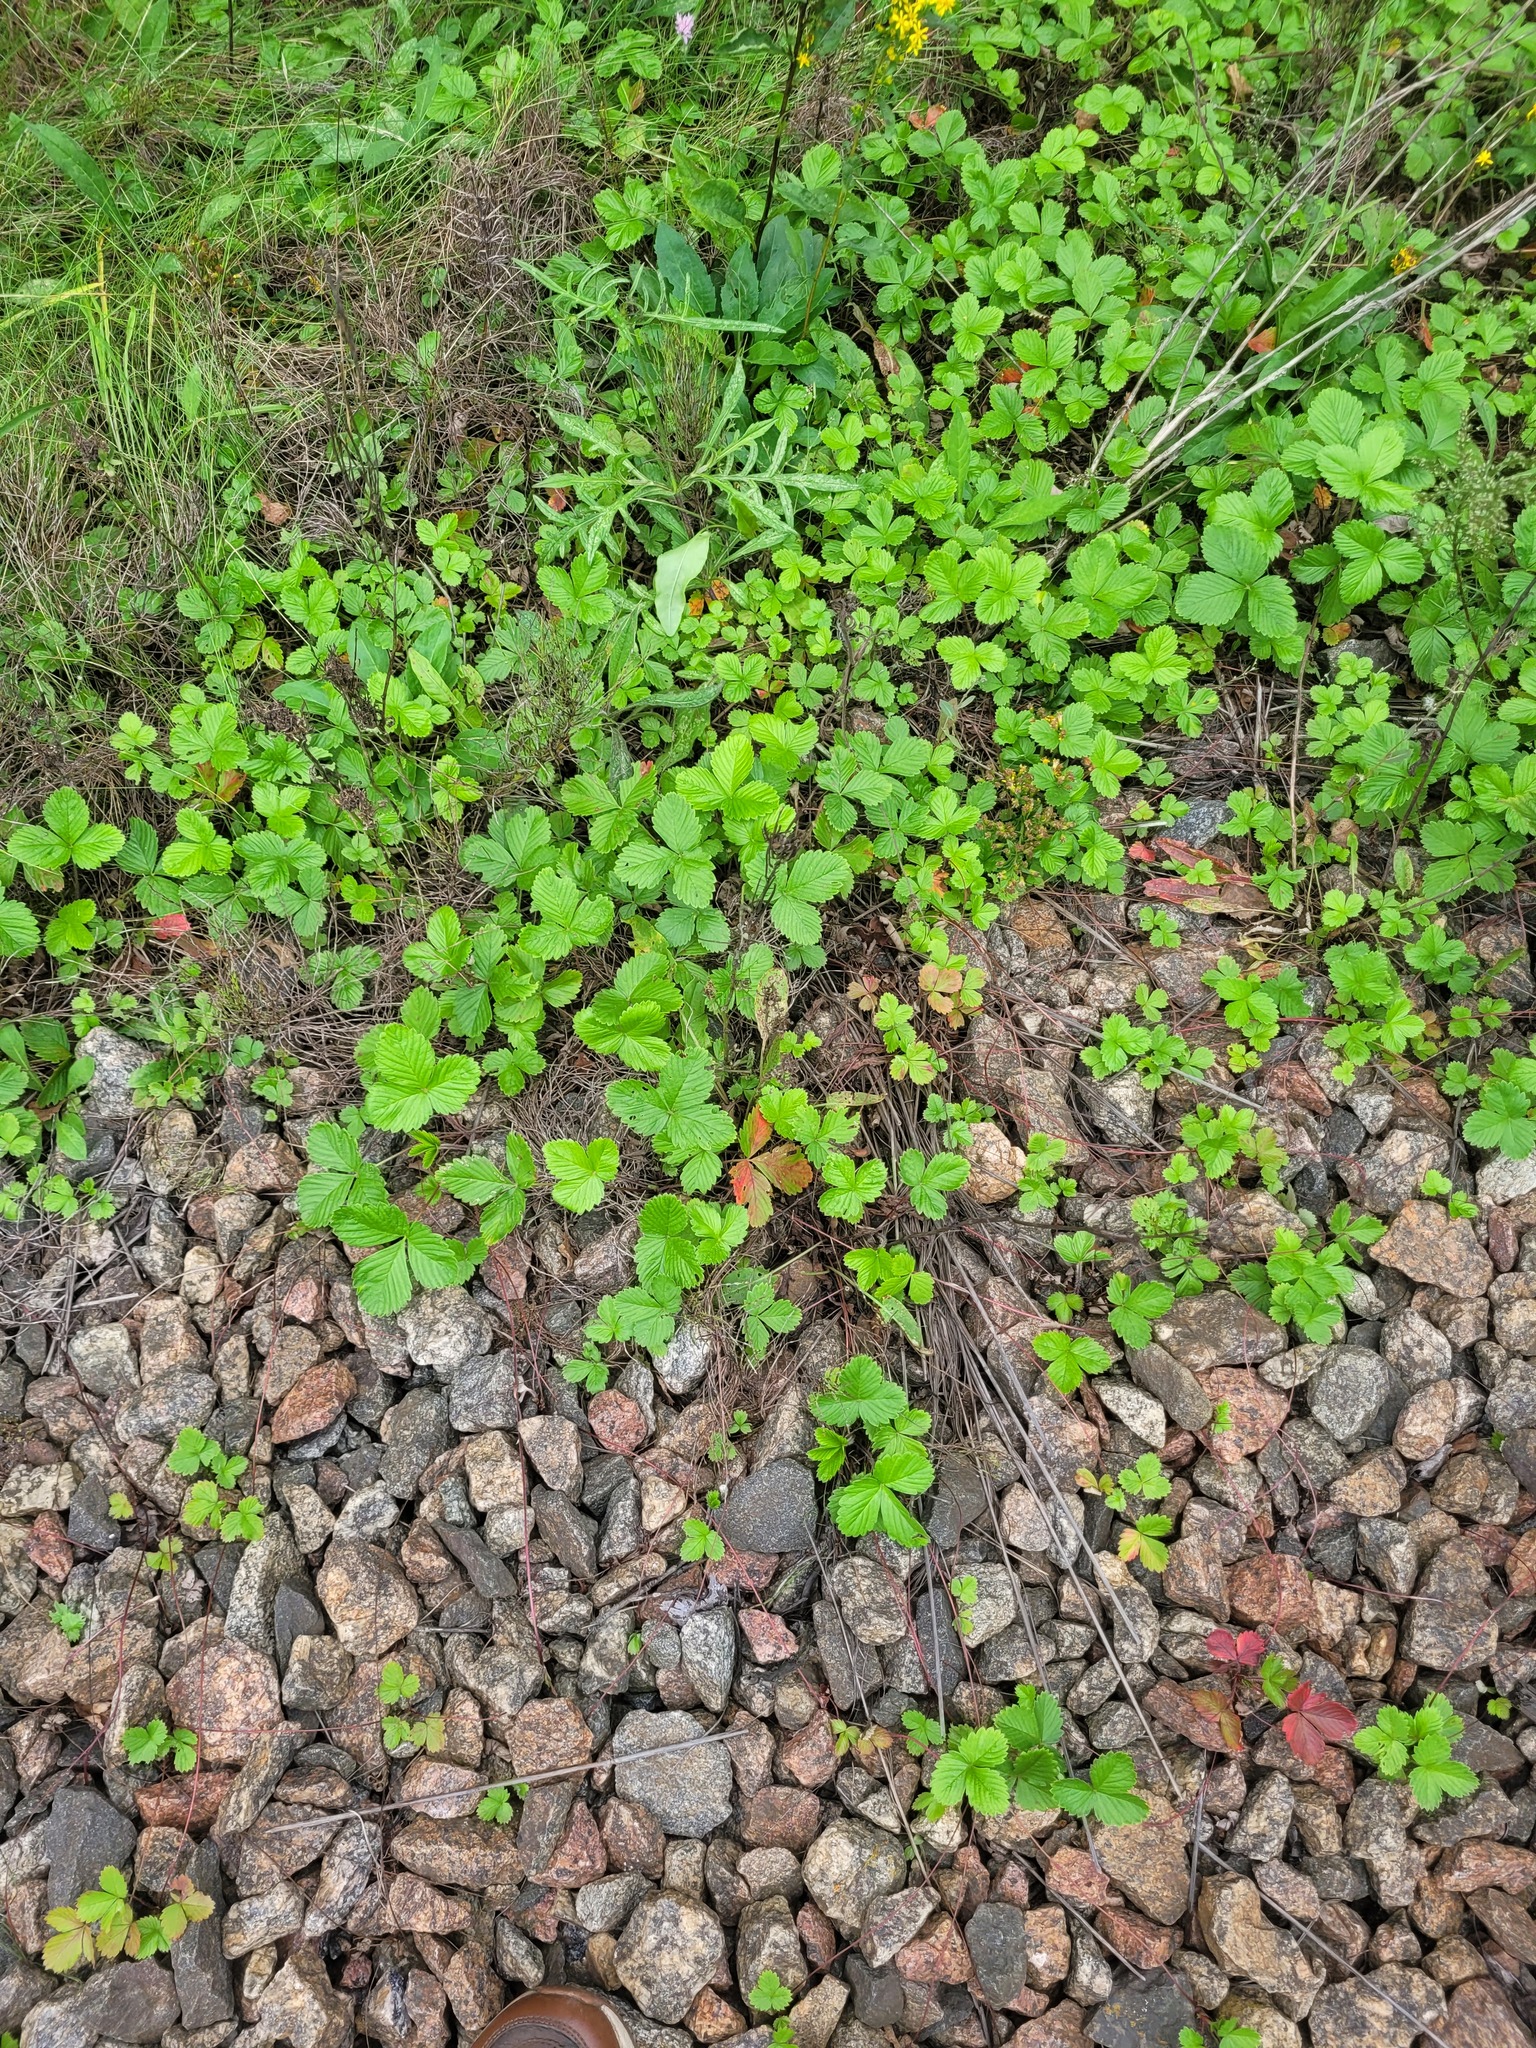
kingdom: Plantae
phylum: Tracheophyta
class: Magnoliopsida
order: Rosales
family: Rosaceae
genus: Fragaria
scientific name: Fragaria viridis
